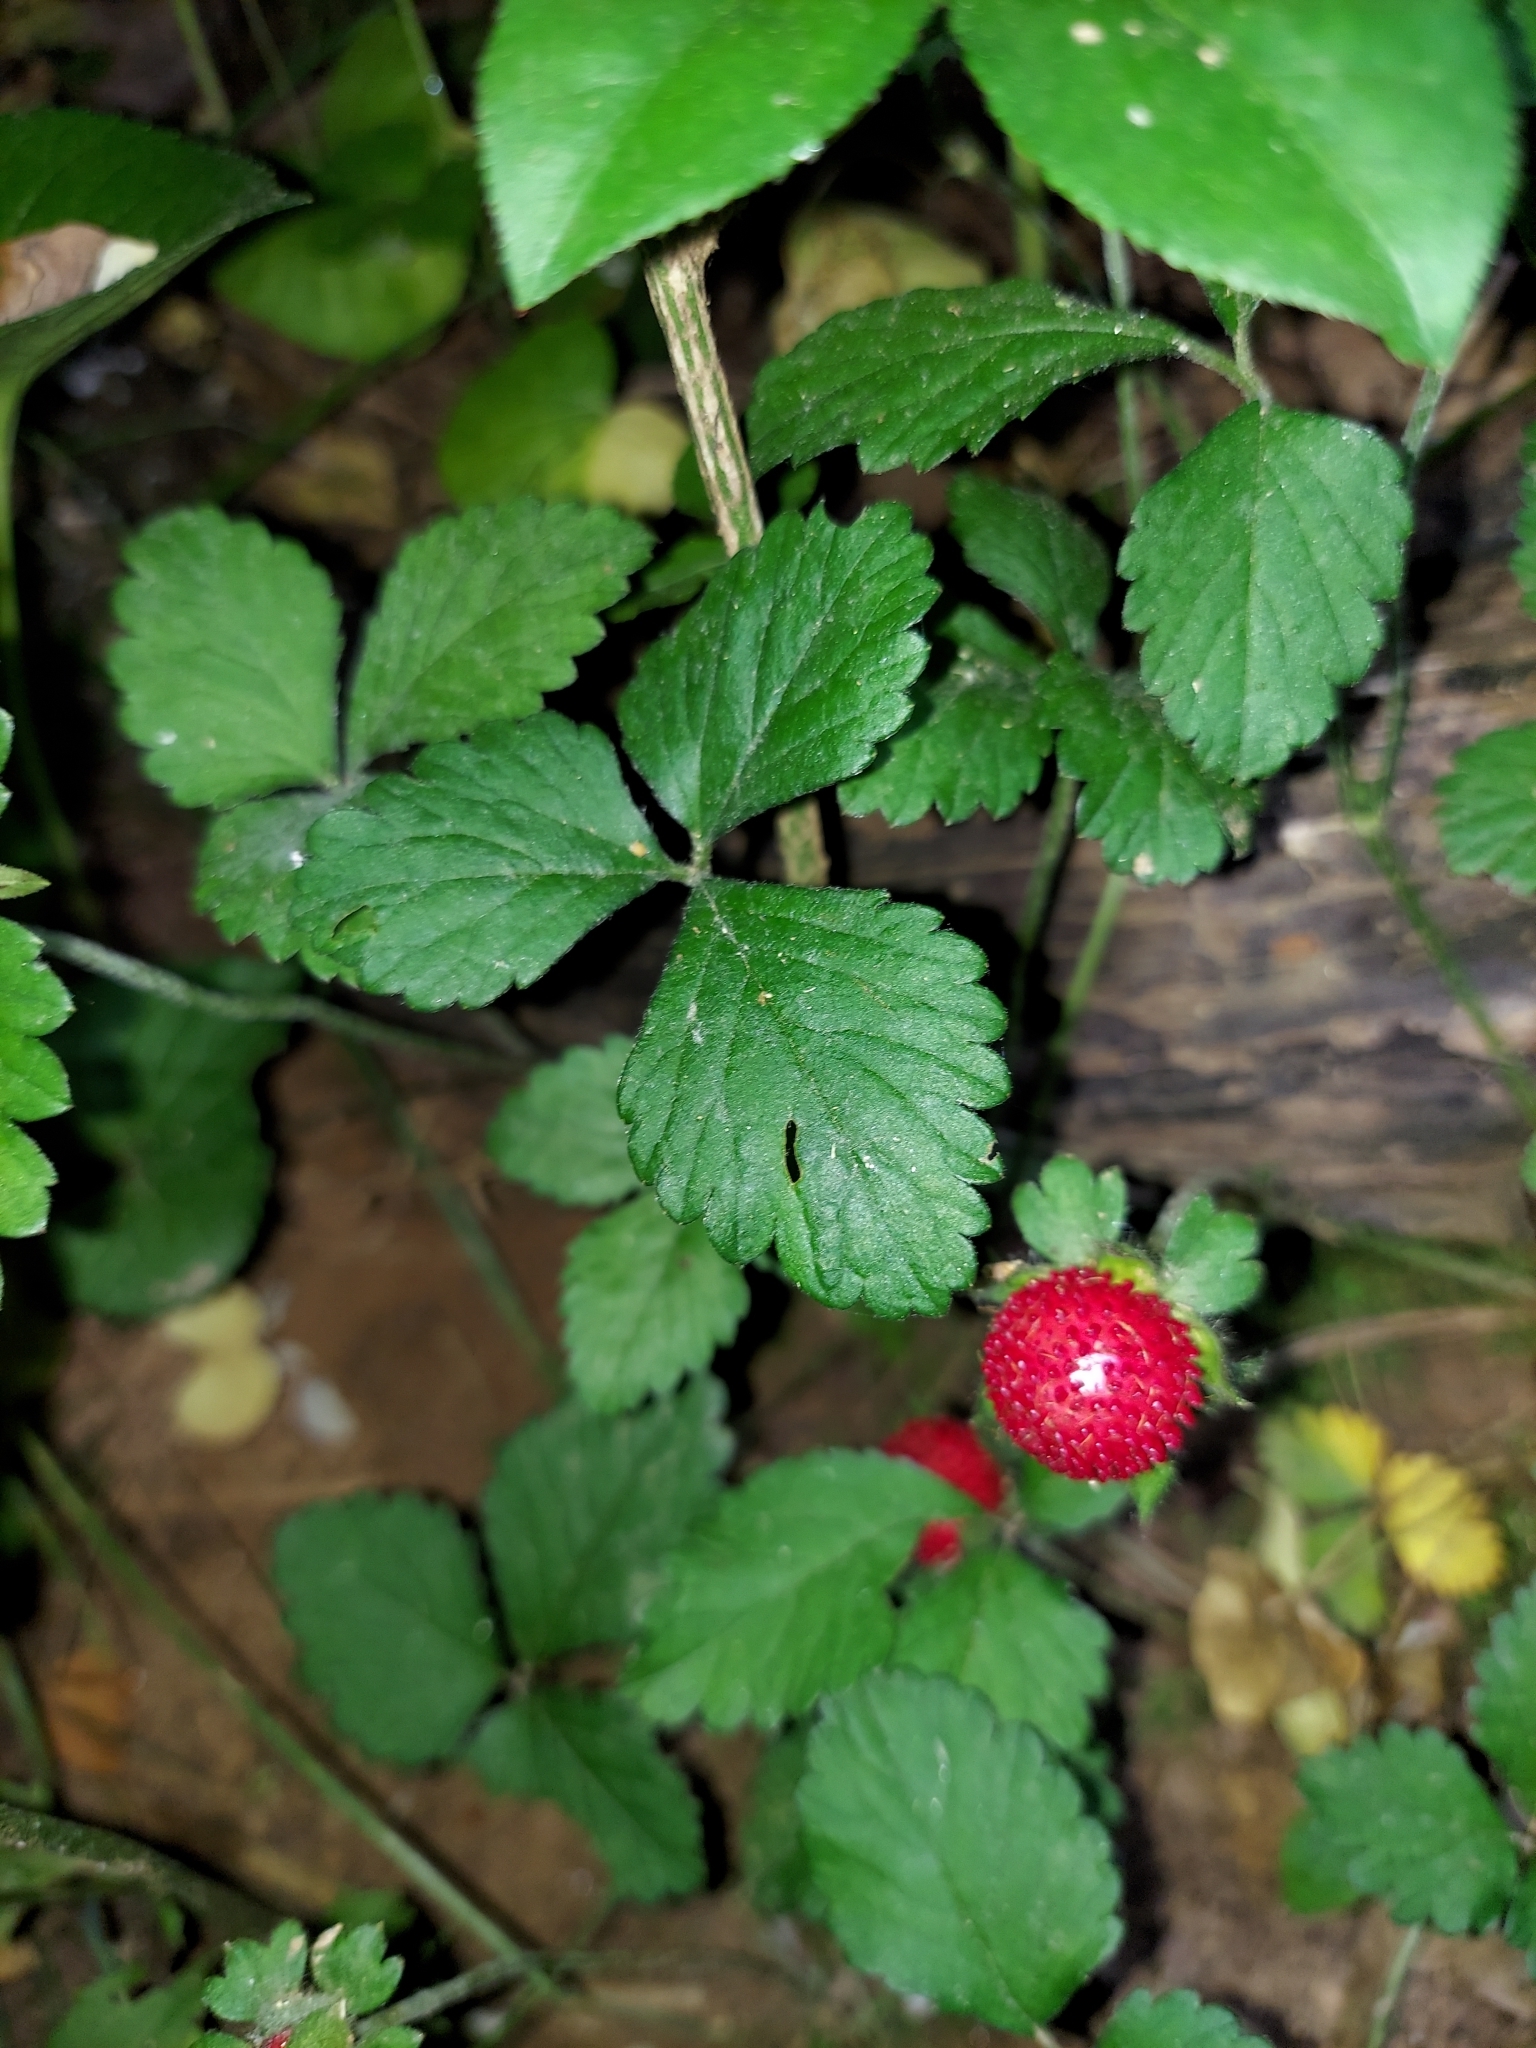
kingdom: Plantae
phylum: Tracheophyta
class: Magnoliopsida
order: Rosales
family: Rosaceae
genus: Potentilla
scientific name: Potentilla indica
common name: Yellow-flowered strawberry
